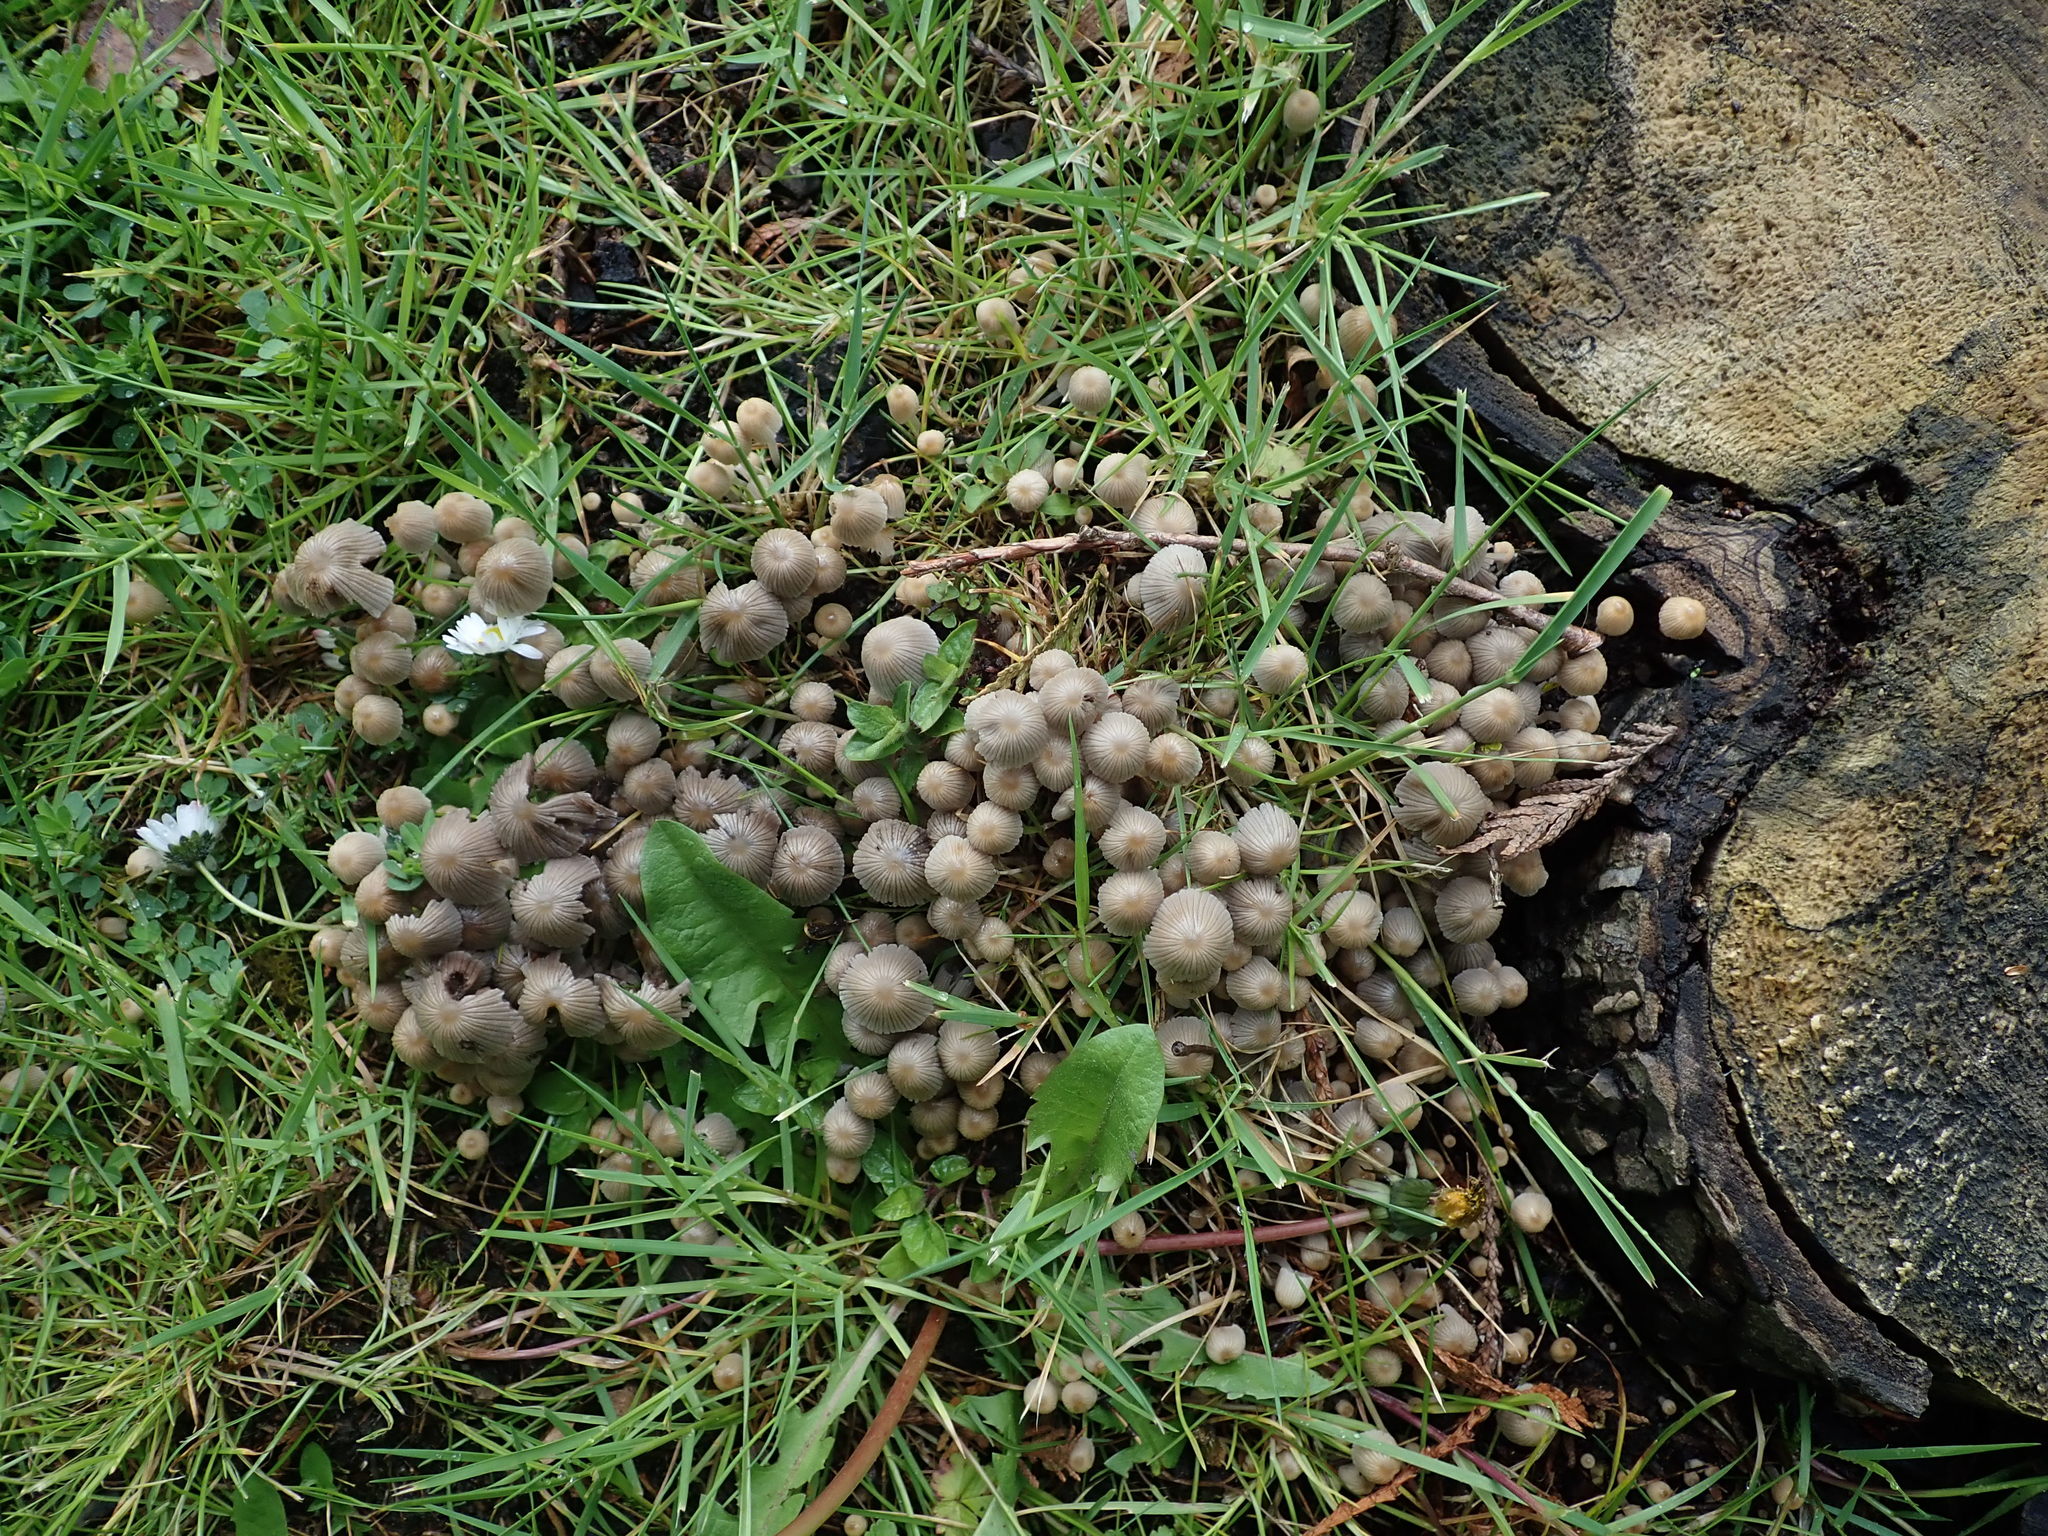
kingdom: Fungi
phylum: Basidiomycota
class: Agaricomycetes
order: Agaricales
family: Psathyrellaceae
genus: Coprinellus
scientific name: Coprinellus disseminatus
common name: Fairies' bonnets
